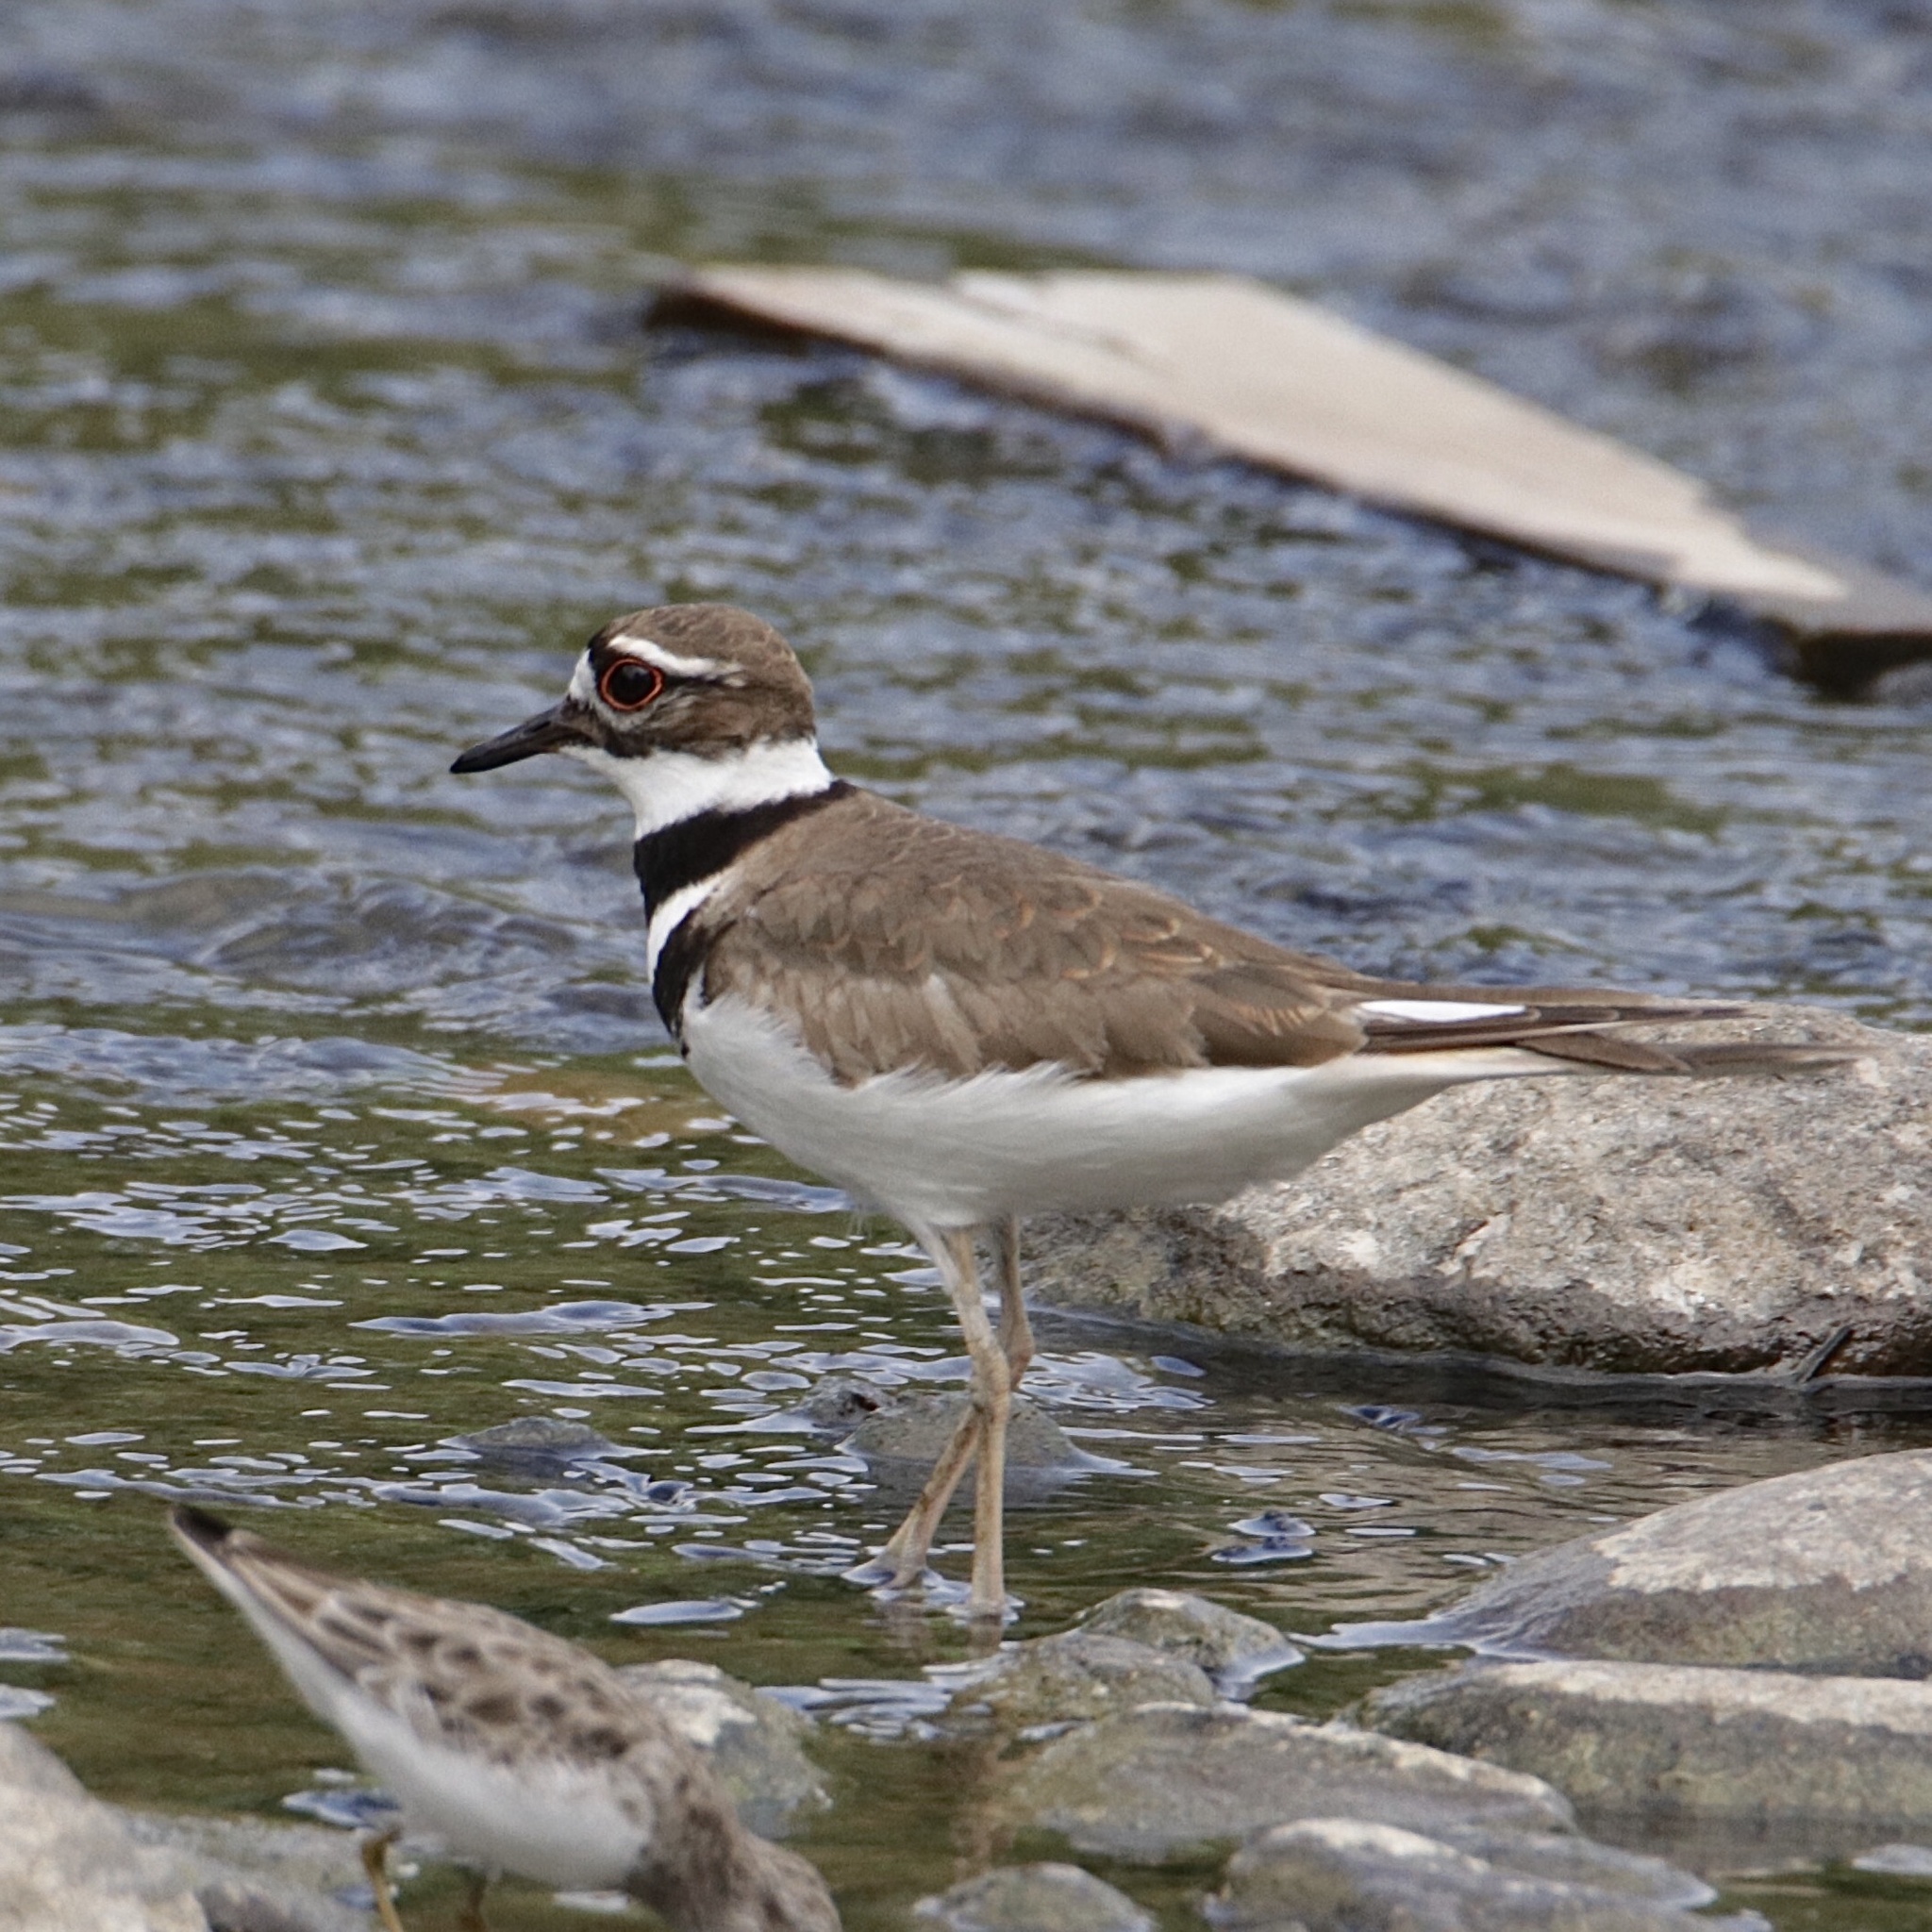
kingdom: Animalia
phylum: Chordata
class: Aves
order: Charadriiformes
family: Charadriidae
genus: Charadrius
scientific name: Charadrius vociferus
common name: Killdeer
